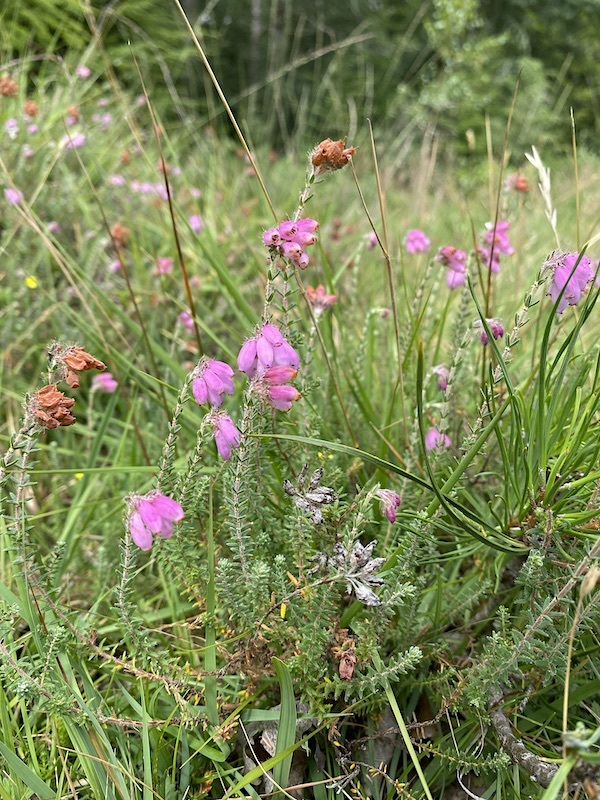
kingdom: Plantae
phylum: Tracheophyta
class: Magnoliopsida
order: Ericales
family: Ericaceae
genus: Erica
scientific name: Erica tetralix
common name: Cross-leaved heath
